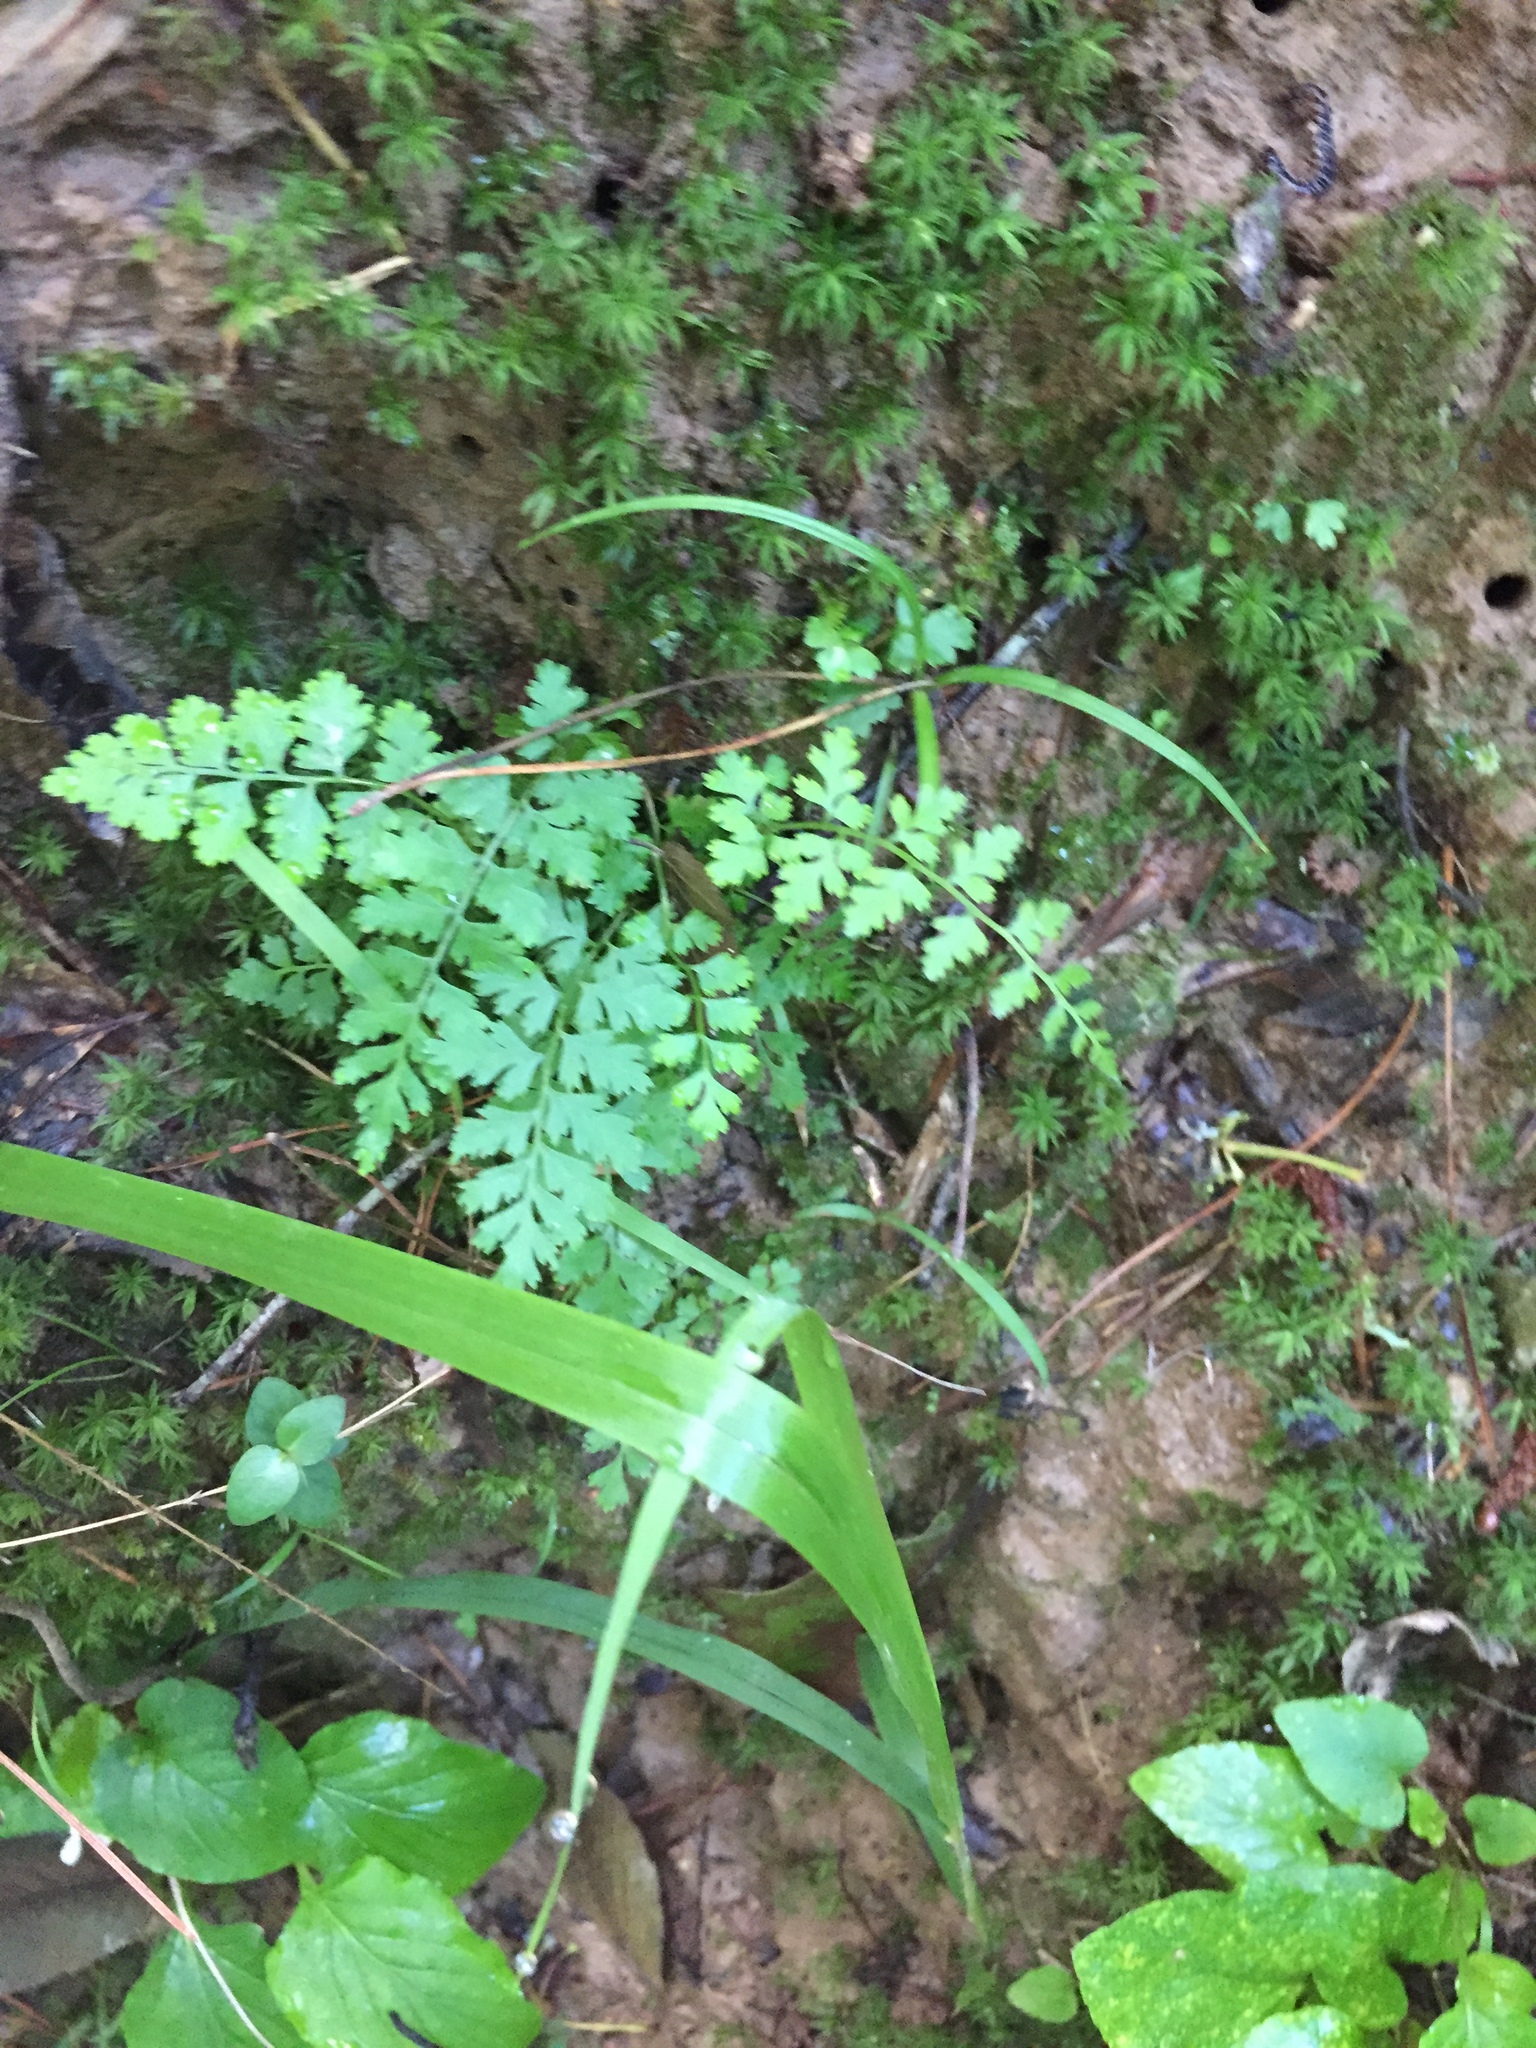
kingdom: Plantae
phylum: Tracheophyta
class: Polypodiopsida
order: Polypodiales
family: Cystopteridaceae
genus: Cystopteris
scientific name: Cystopteris protrusa
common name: Lowland brittle fern
